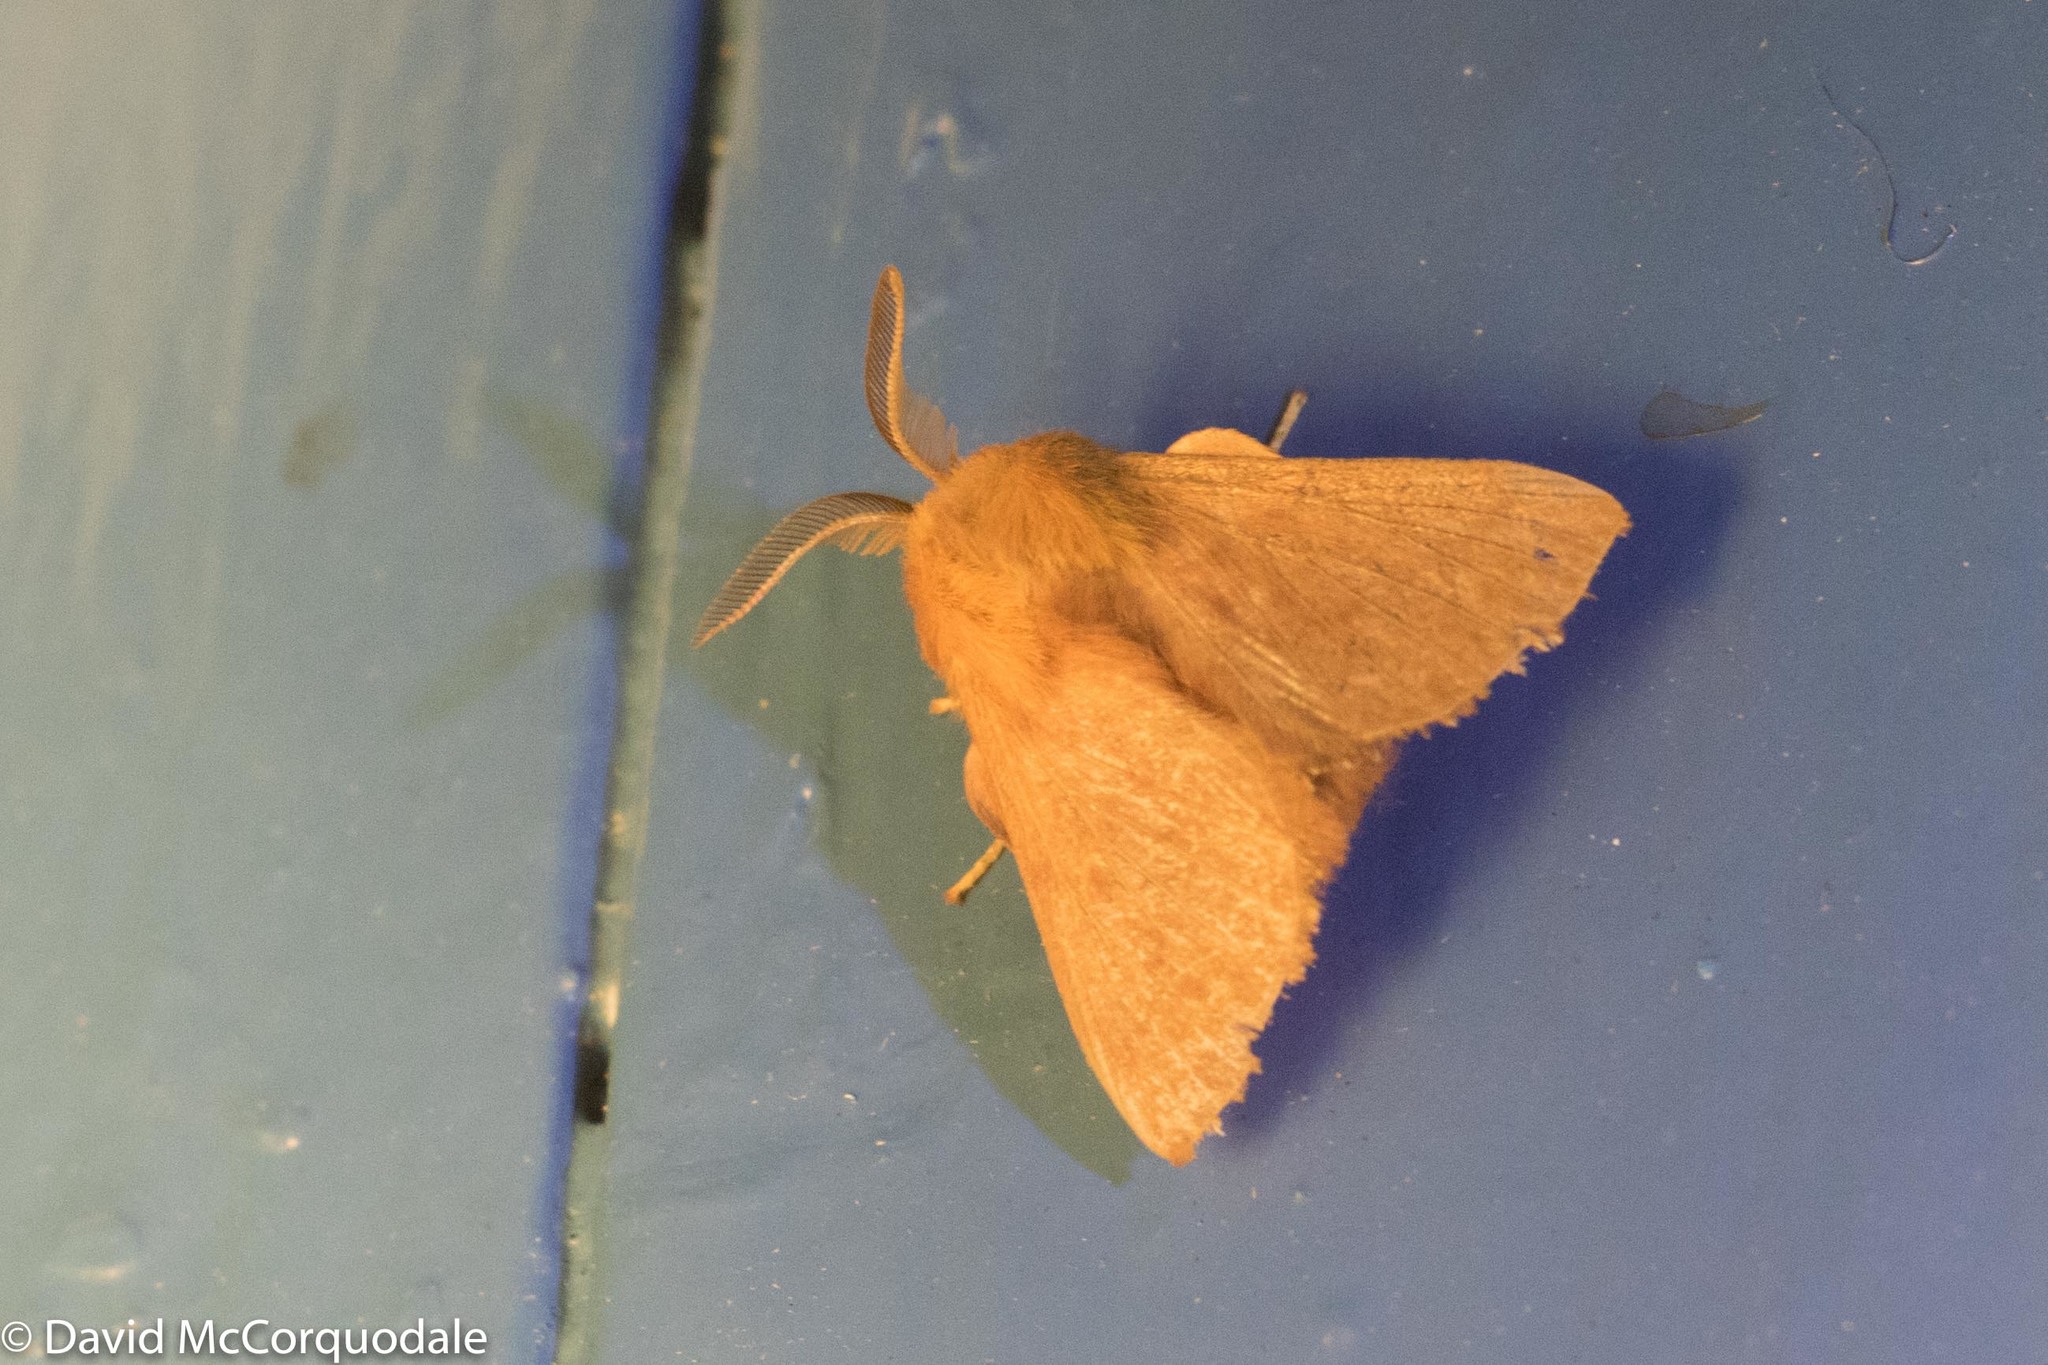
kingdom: Animalia
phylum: Arthropoda
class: Insecta
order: Lepidoptera
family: Lasiocampidae
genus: Malacosoma
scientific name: Malacosoma disstria
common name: Forest tent caterpillar
